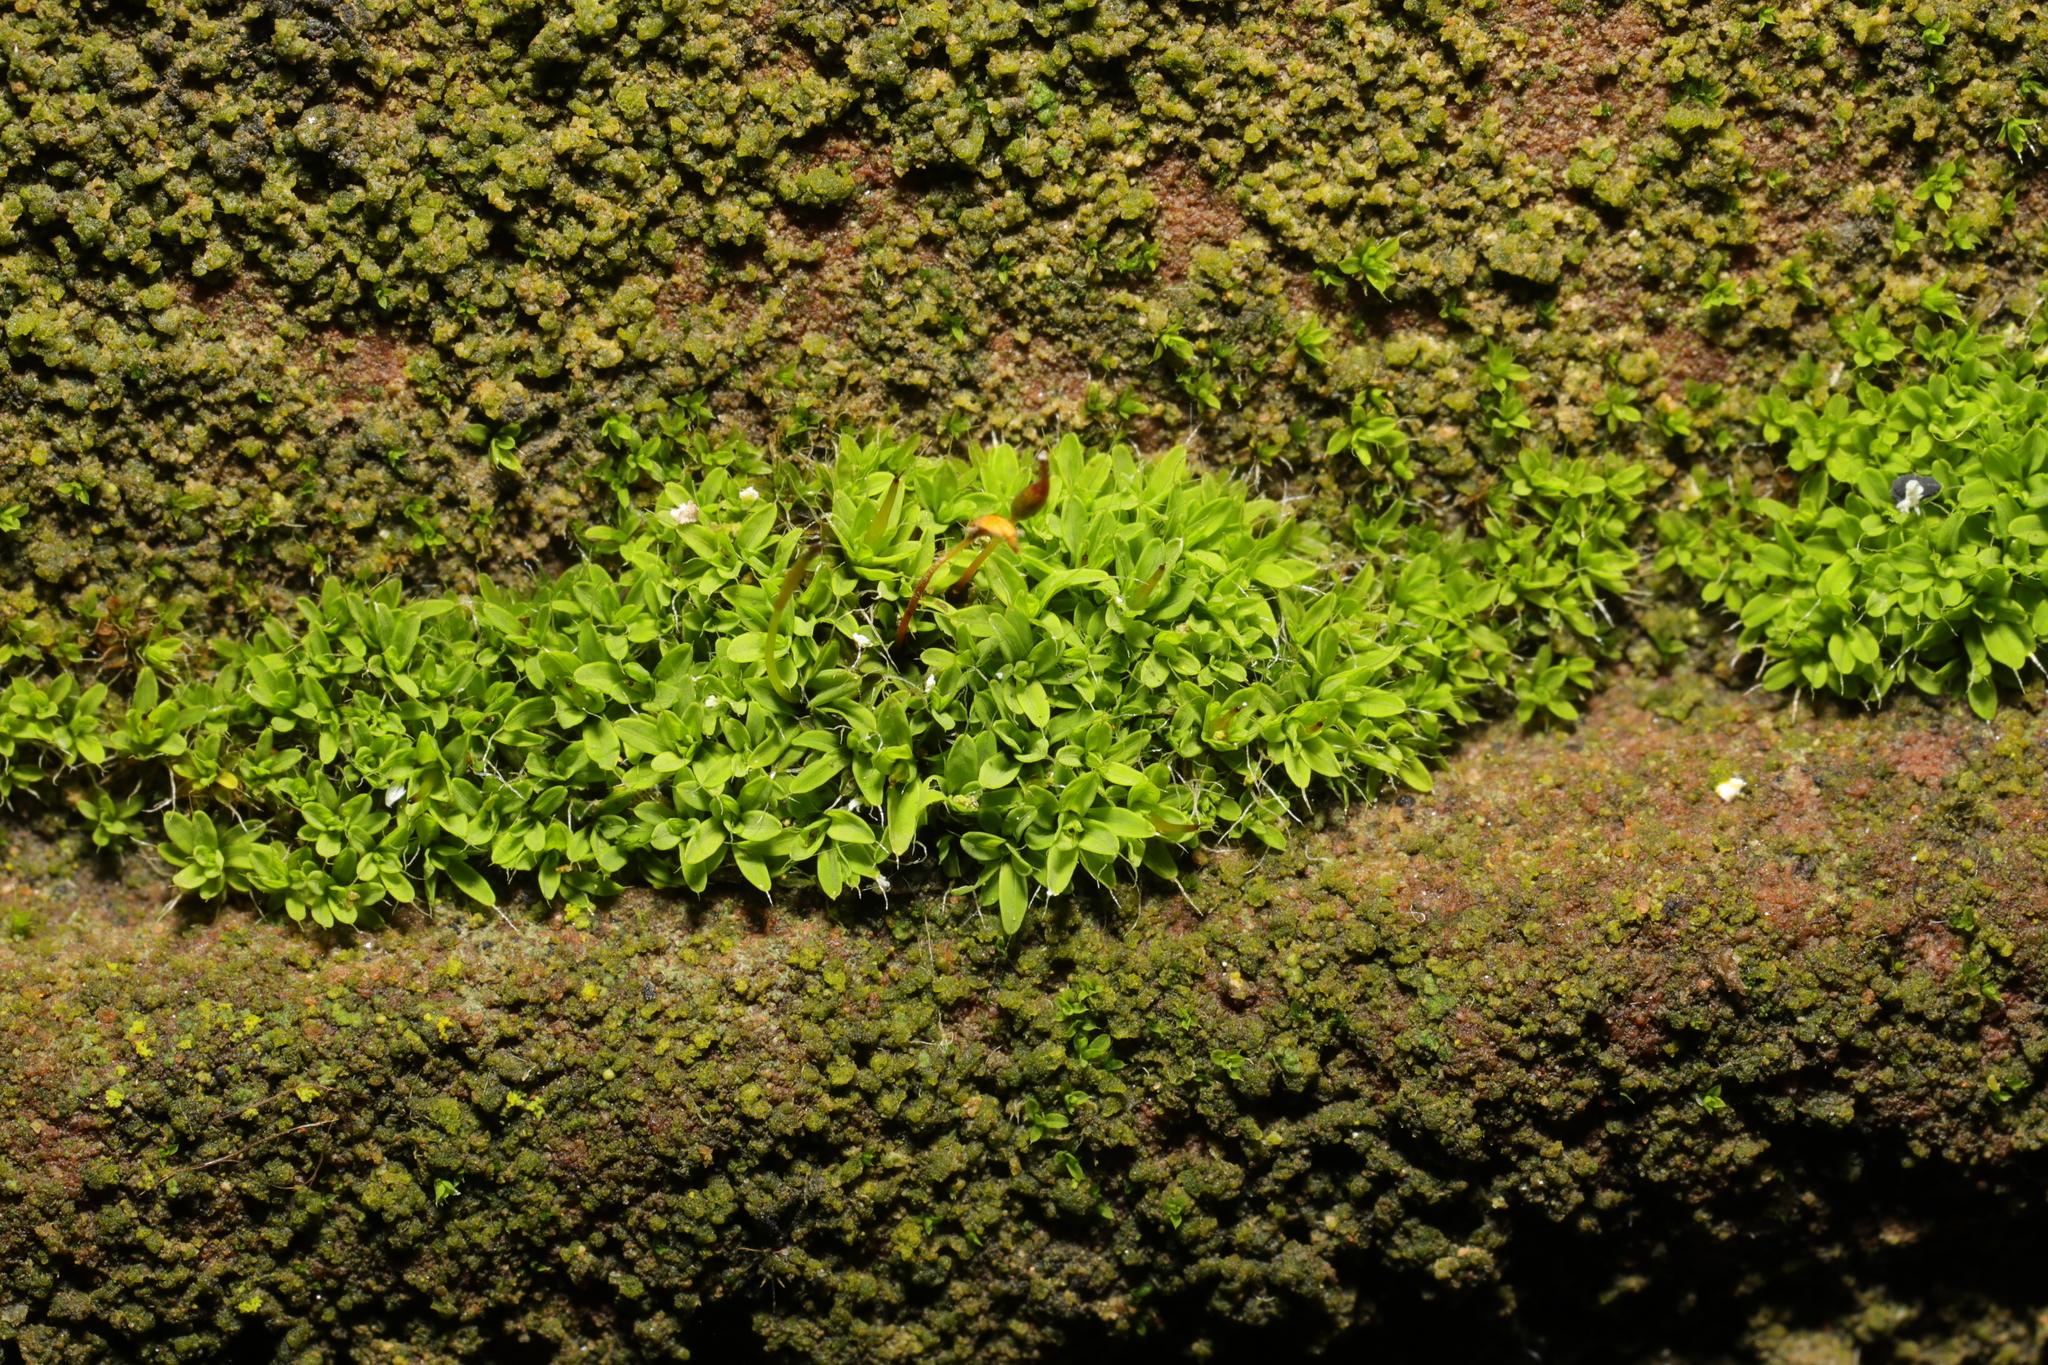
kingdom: Plantae
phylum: Bryophyta
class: Bryopsida
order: Pottiales
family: Pottiaceae
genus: Tortula
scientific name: Tortula muralis
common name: Wall screw-moss
